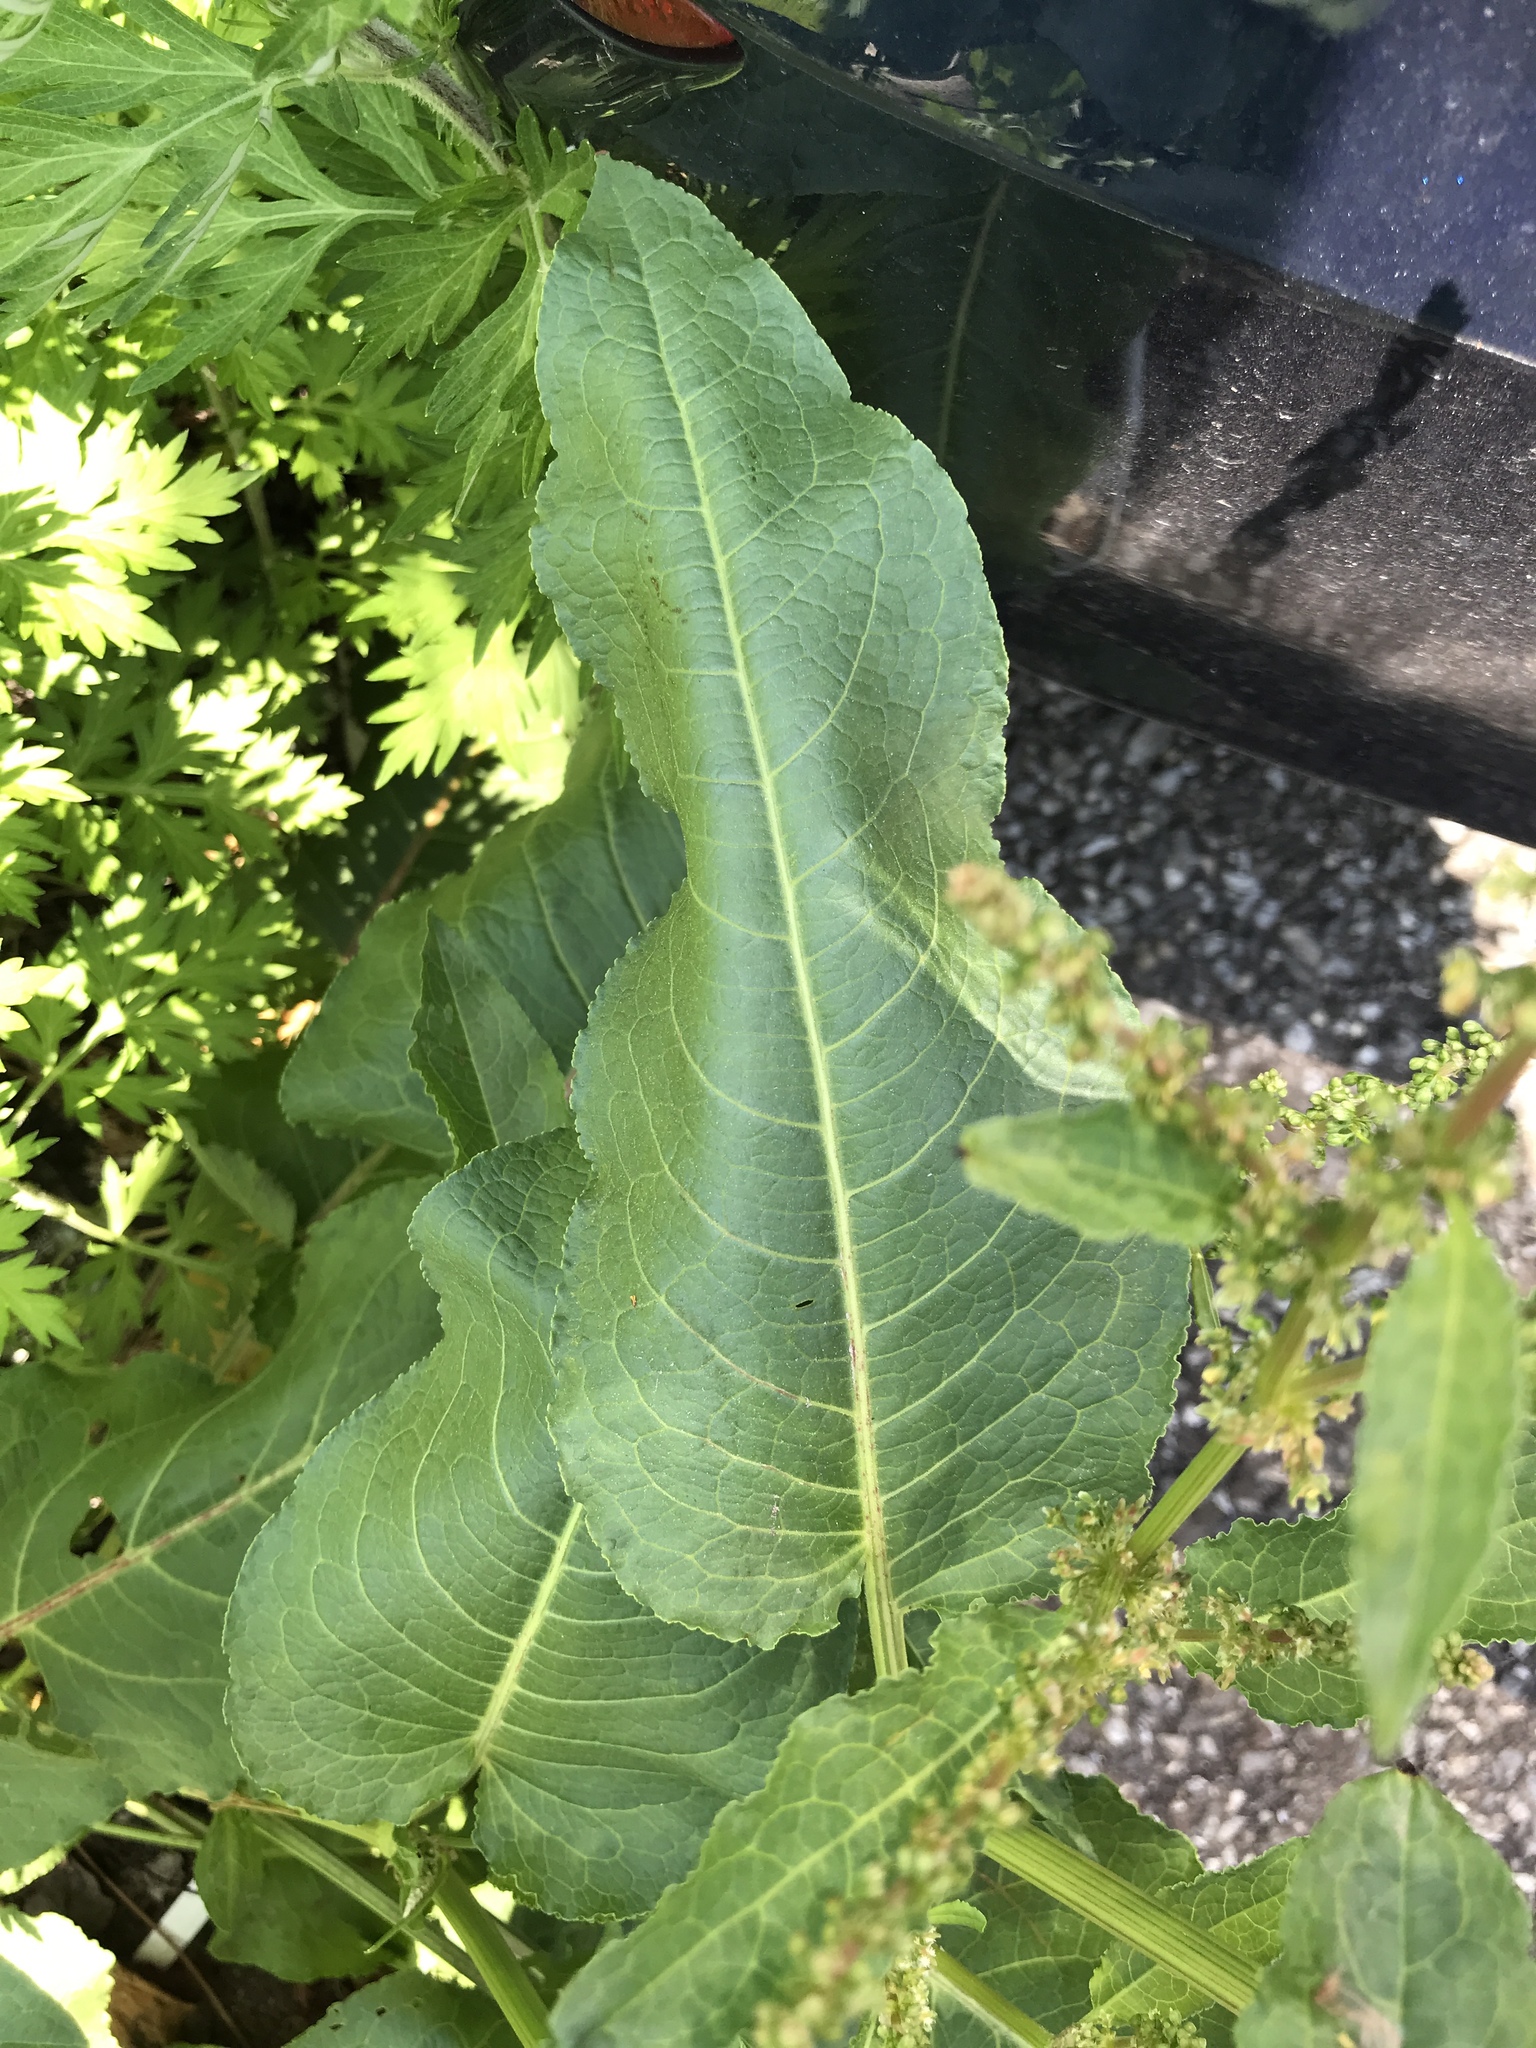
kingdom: Plantae
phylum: Tracheophyta
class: Magnoliopsida
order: Caryophyllales
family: Polygonaceae
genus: Rumex
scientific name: Rumex obtusifolius
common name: Bitter dock
